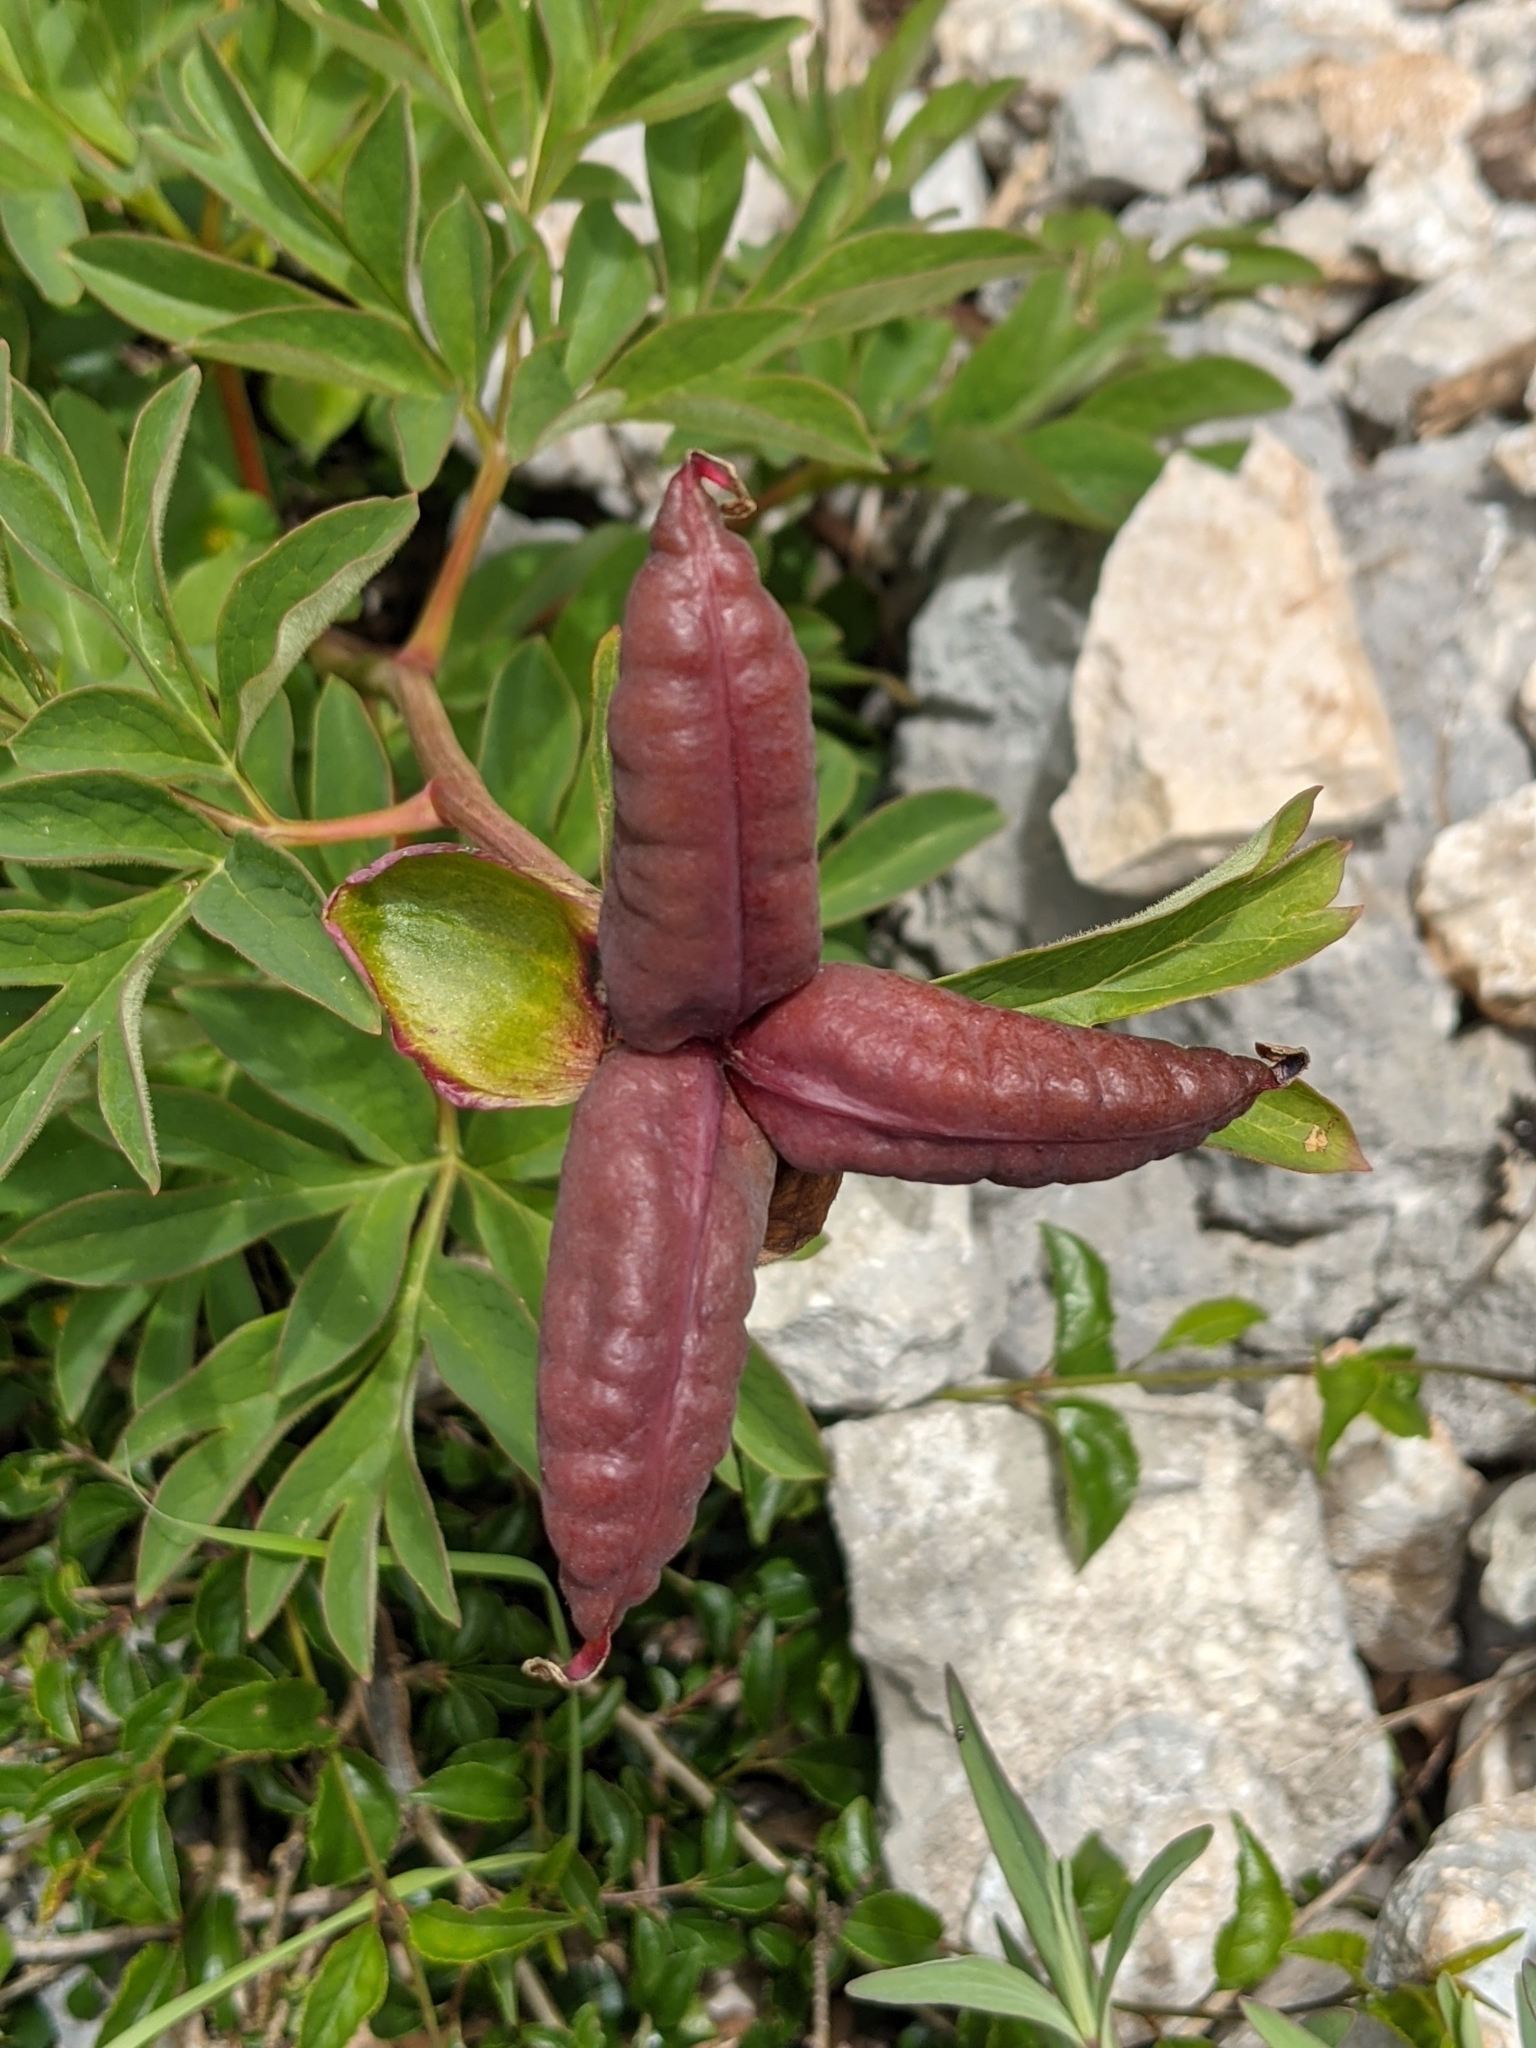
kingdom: Plantae
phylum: Tracheophyta
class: Magnoliopsida
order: Saxifragales
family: Paeoniaceae
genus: Paeonia
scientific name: Paeonia officinalis
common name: Common peony
